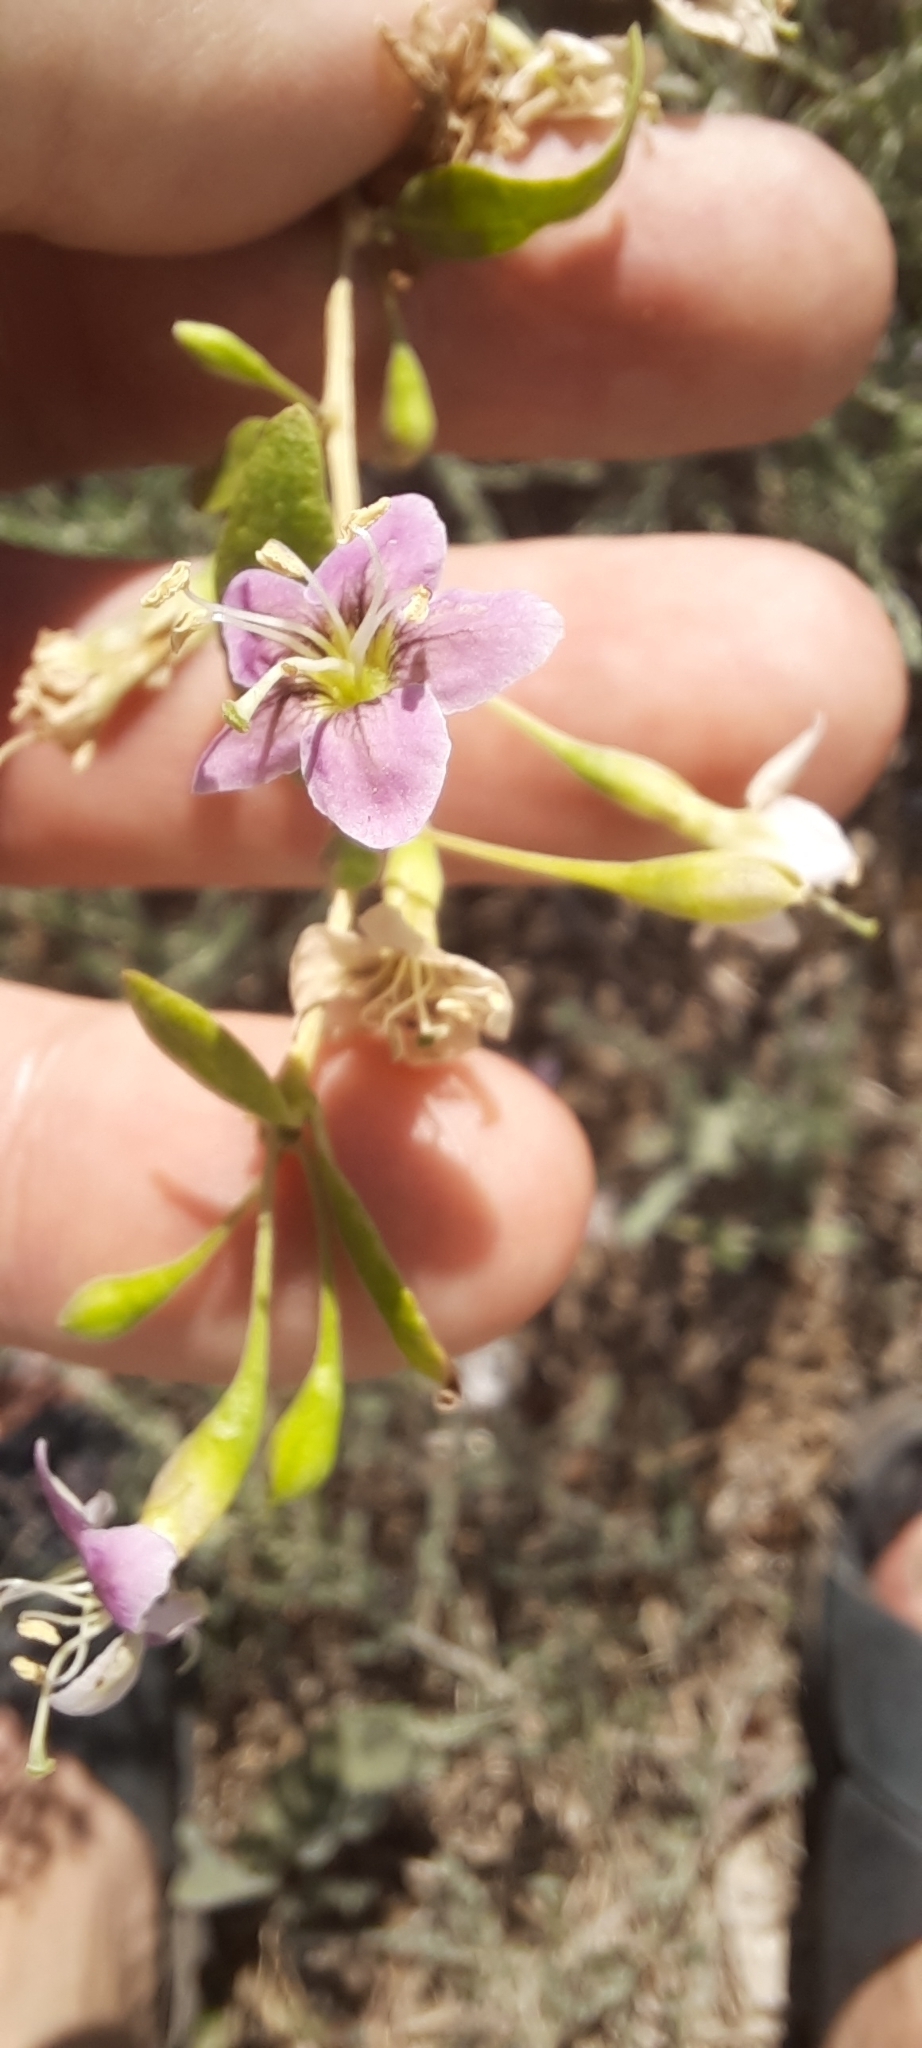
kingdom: Plantae
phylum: Tracheophyta
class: Magnoliopsida
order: Solanales
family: Solanaceae
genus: Lycium
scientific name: Lycium barbarum
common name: Duke of argyll's teaplant
